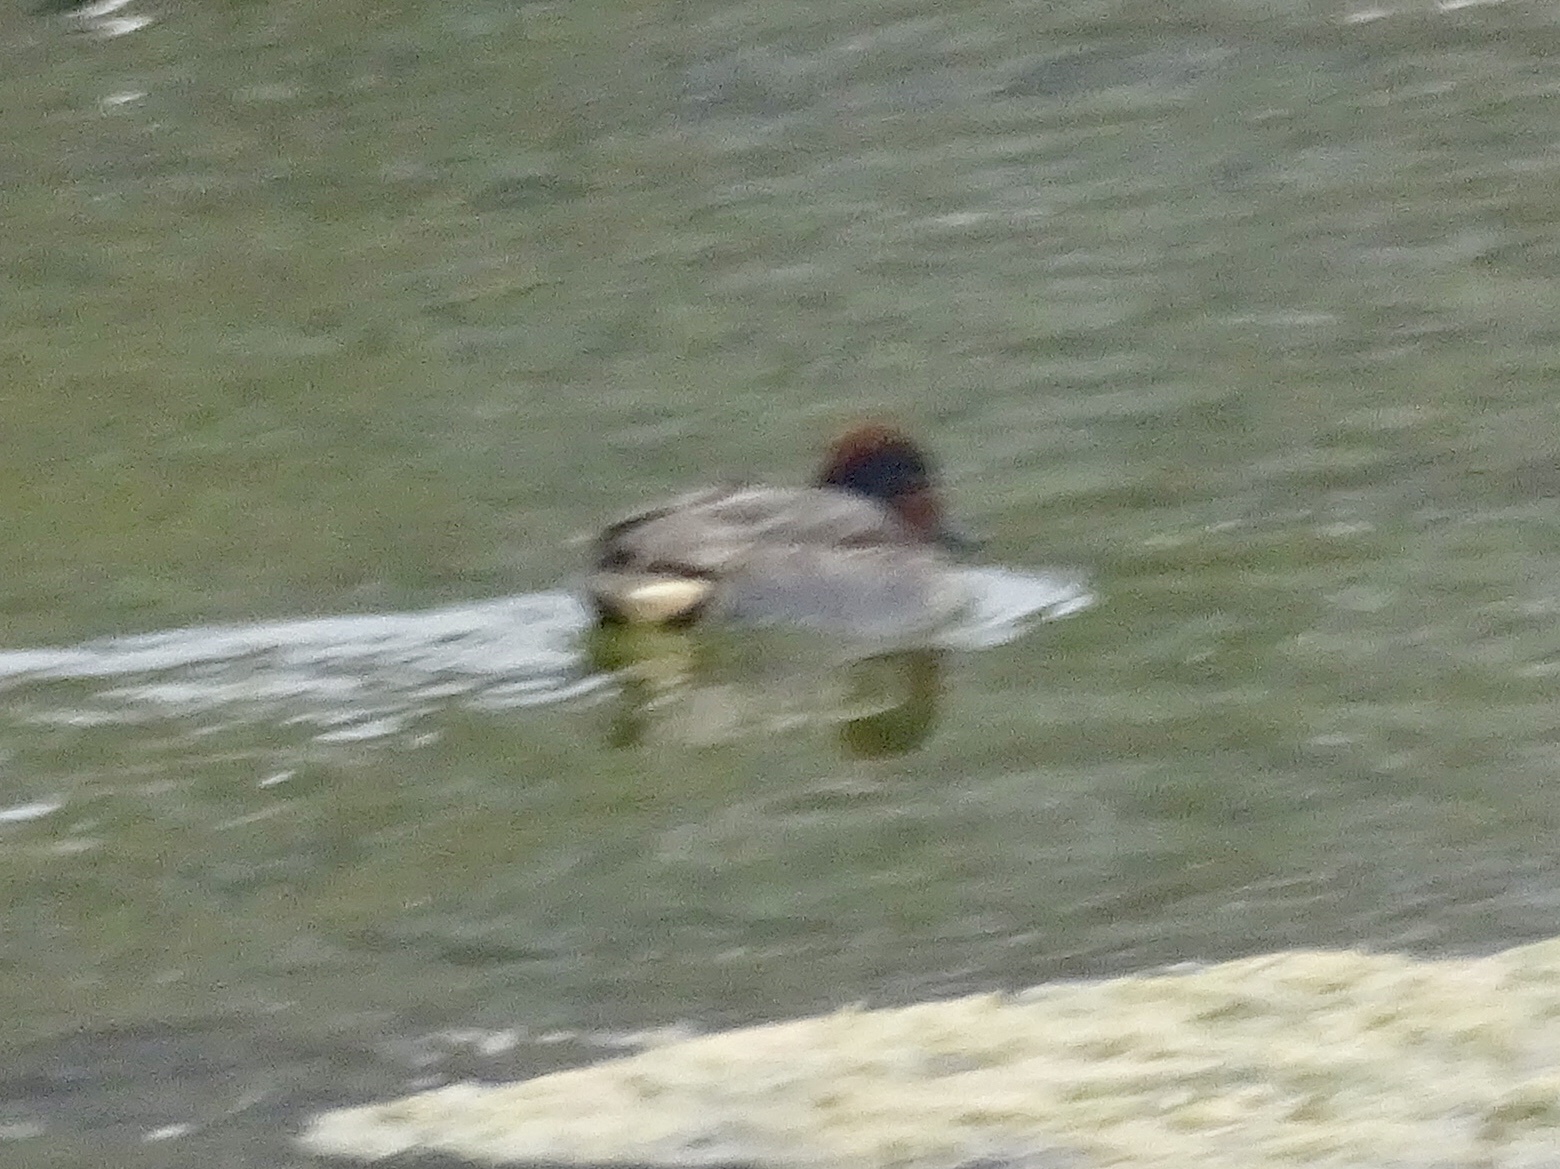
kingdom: Animalia
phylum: Chordata
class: Aves
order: Anseriformes
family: Anatidae
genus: Anas
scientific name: Anas crecca
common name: Eurasian teal
